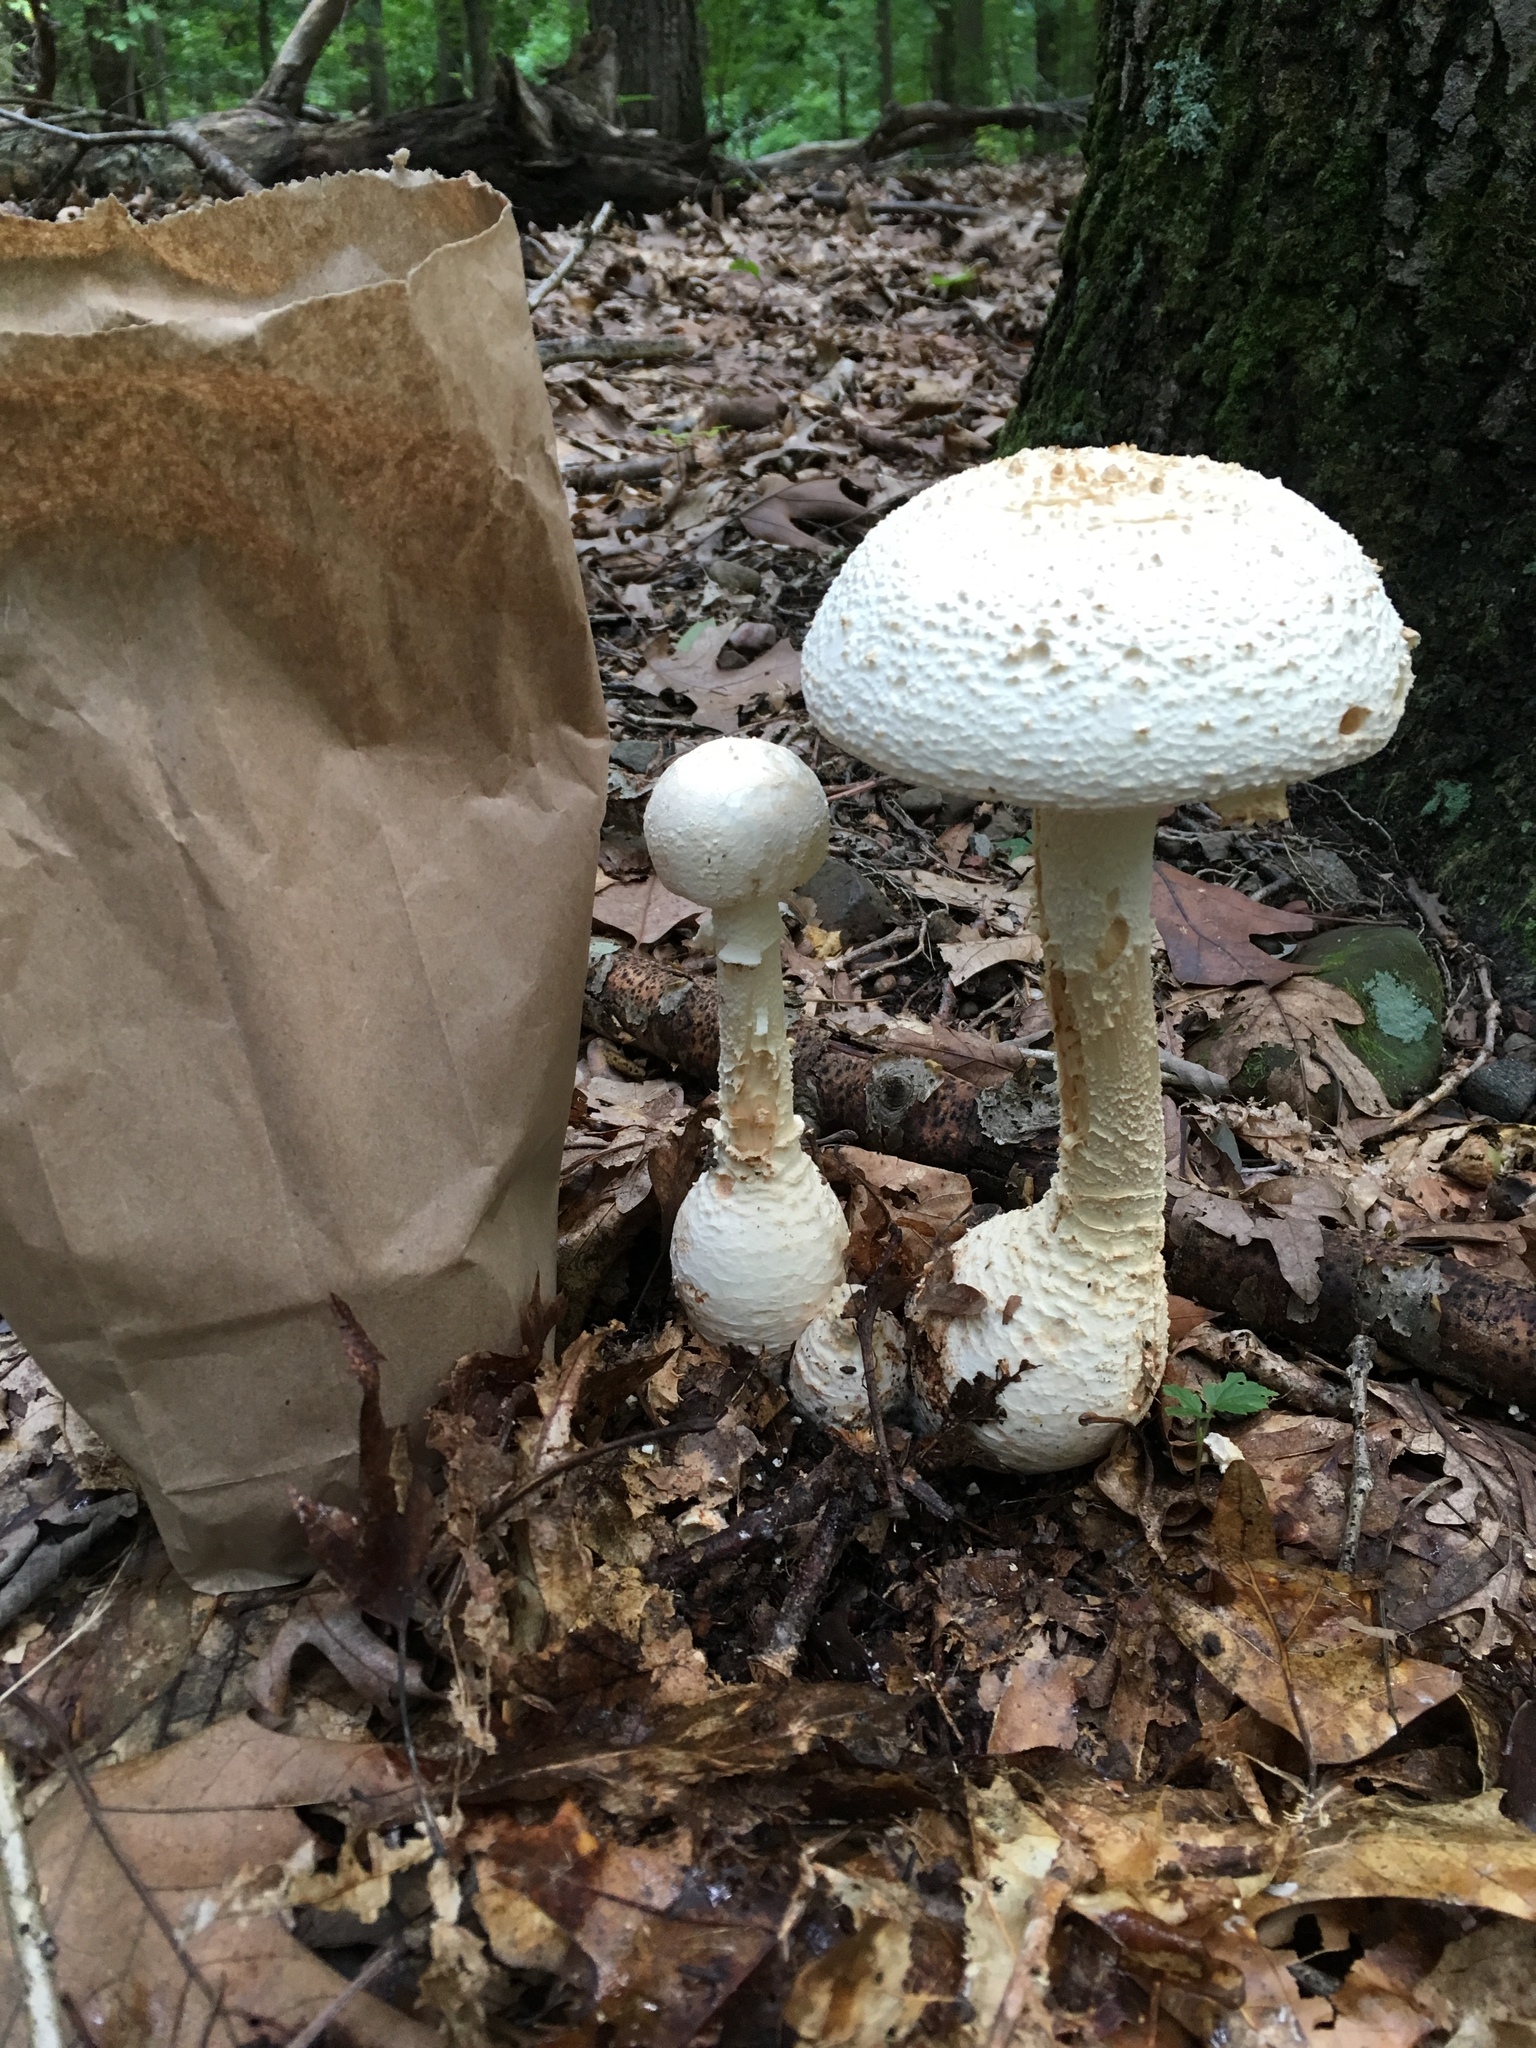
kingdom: Fungi
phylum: Basidiomycota
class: Agaricomycetes
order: Agaricales
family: Amanitaceae
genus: Amanita
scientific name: Amanita cokeri
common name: Coker's amanita
